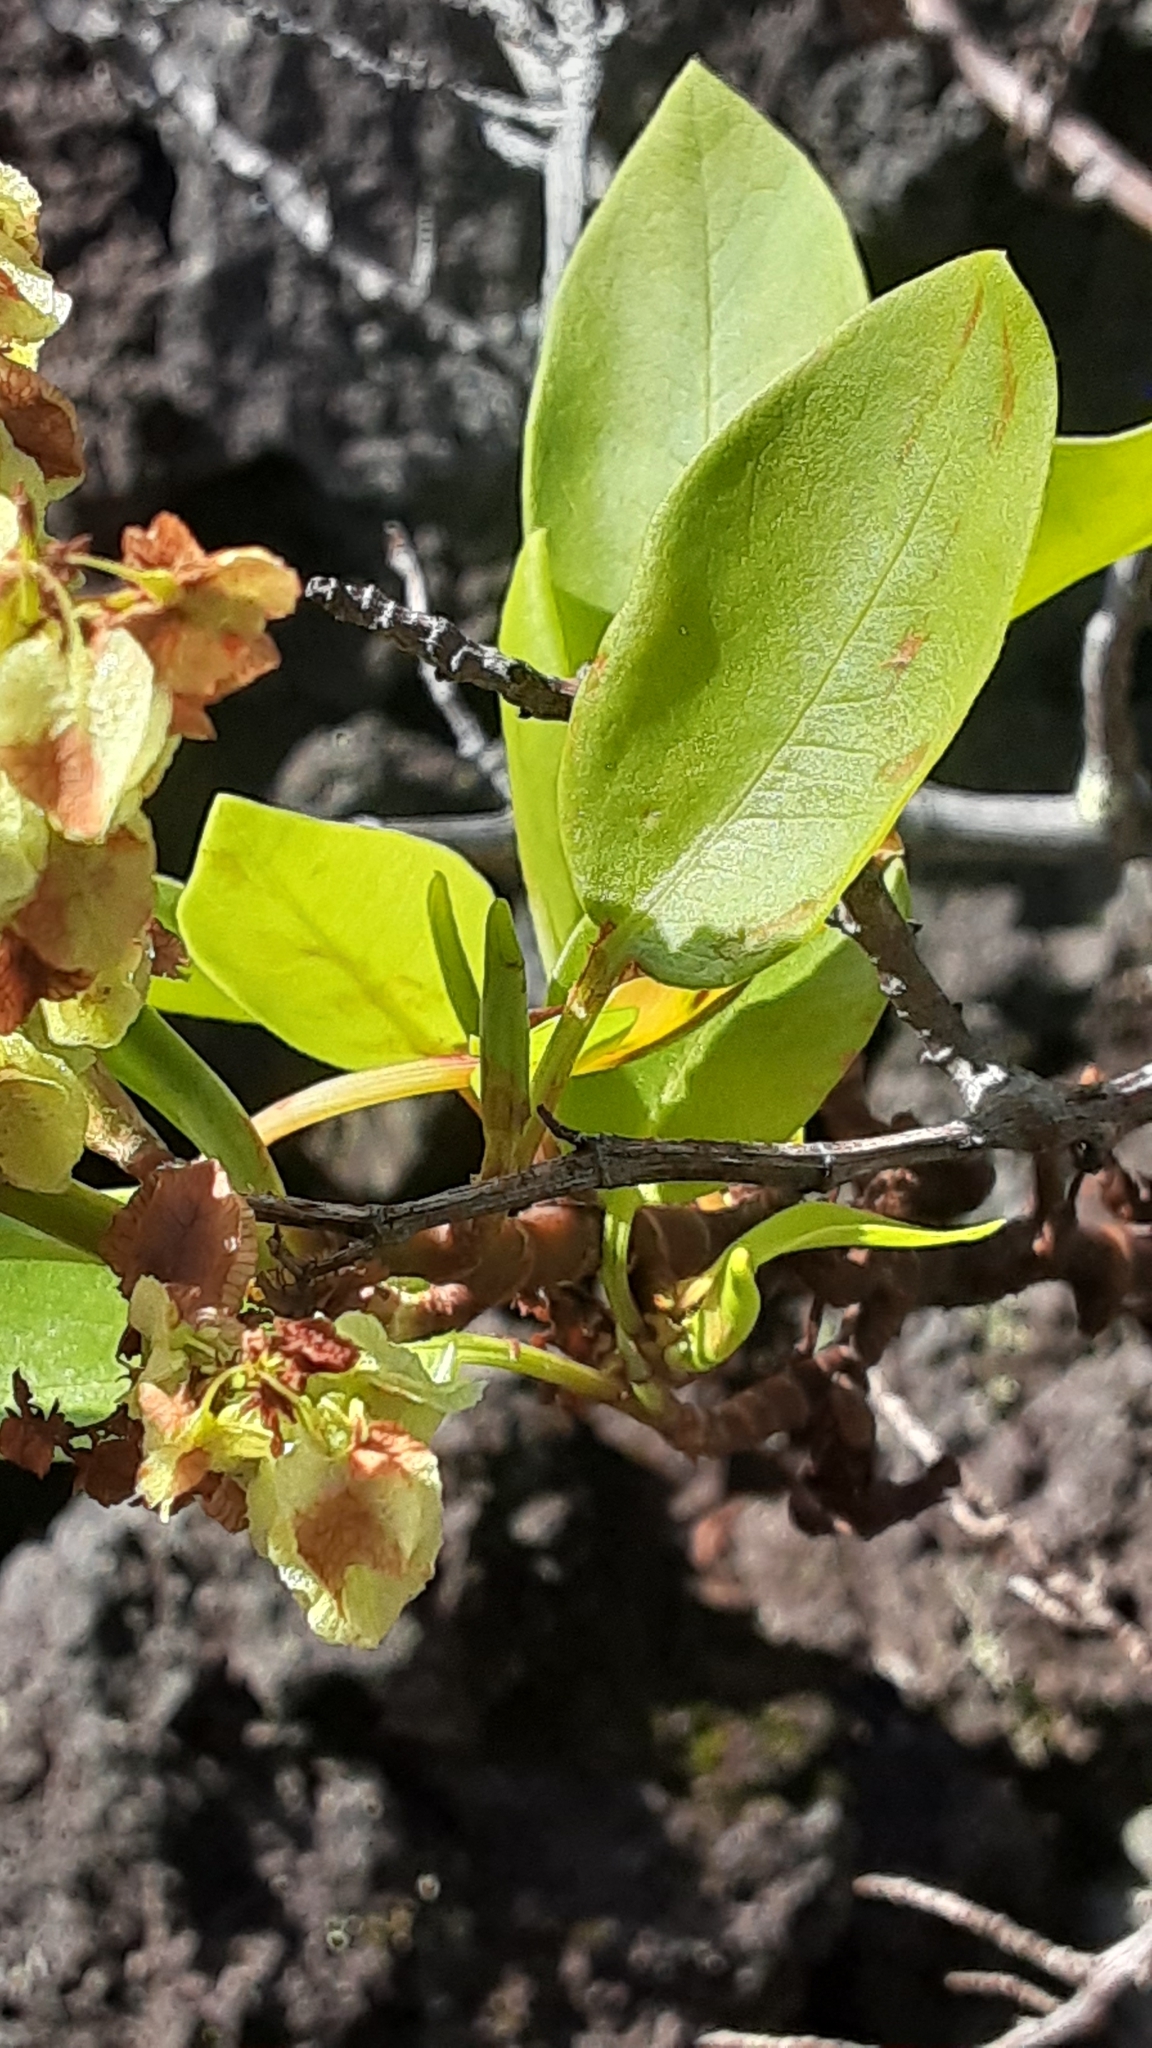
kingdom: Plantae
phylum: Tracheophyta
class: Magnoliopsida
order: Caryophyllales
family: Polygonaceae
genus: Rumex
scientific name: Rumex skottsbergii
